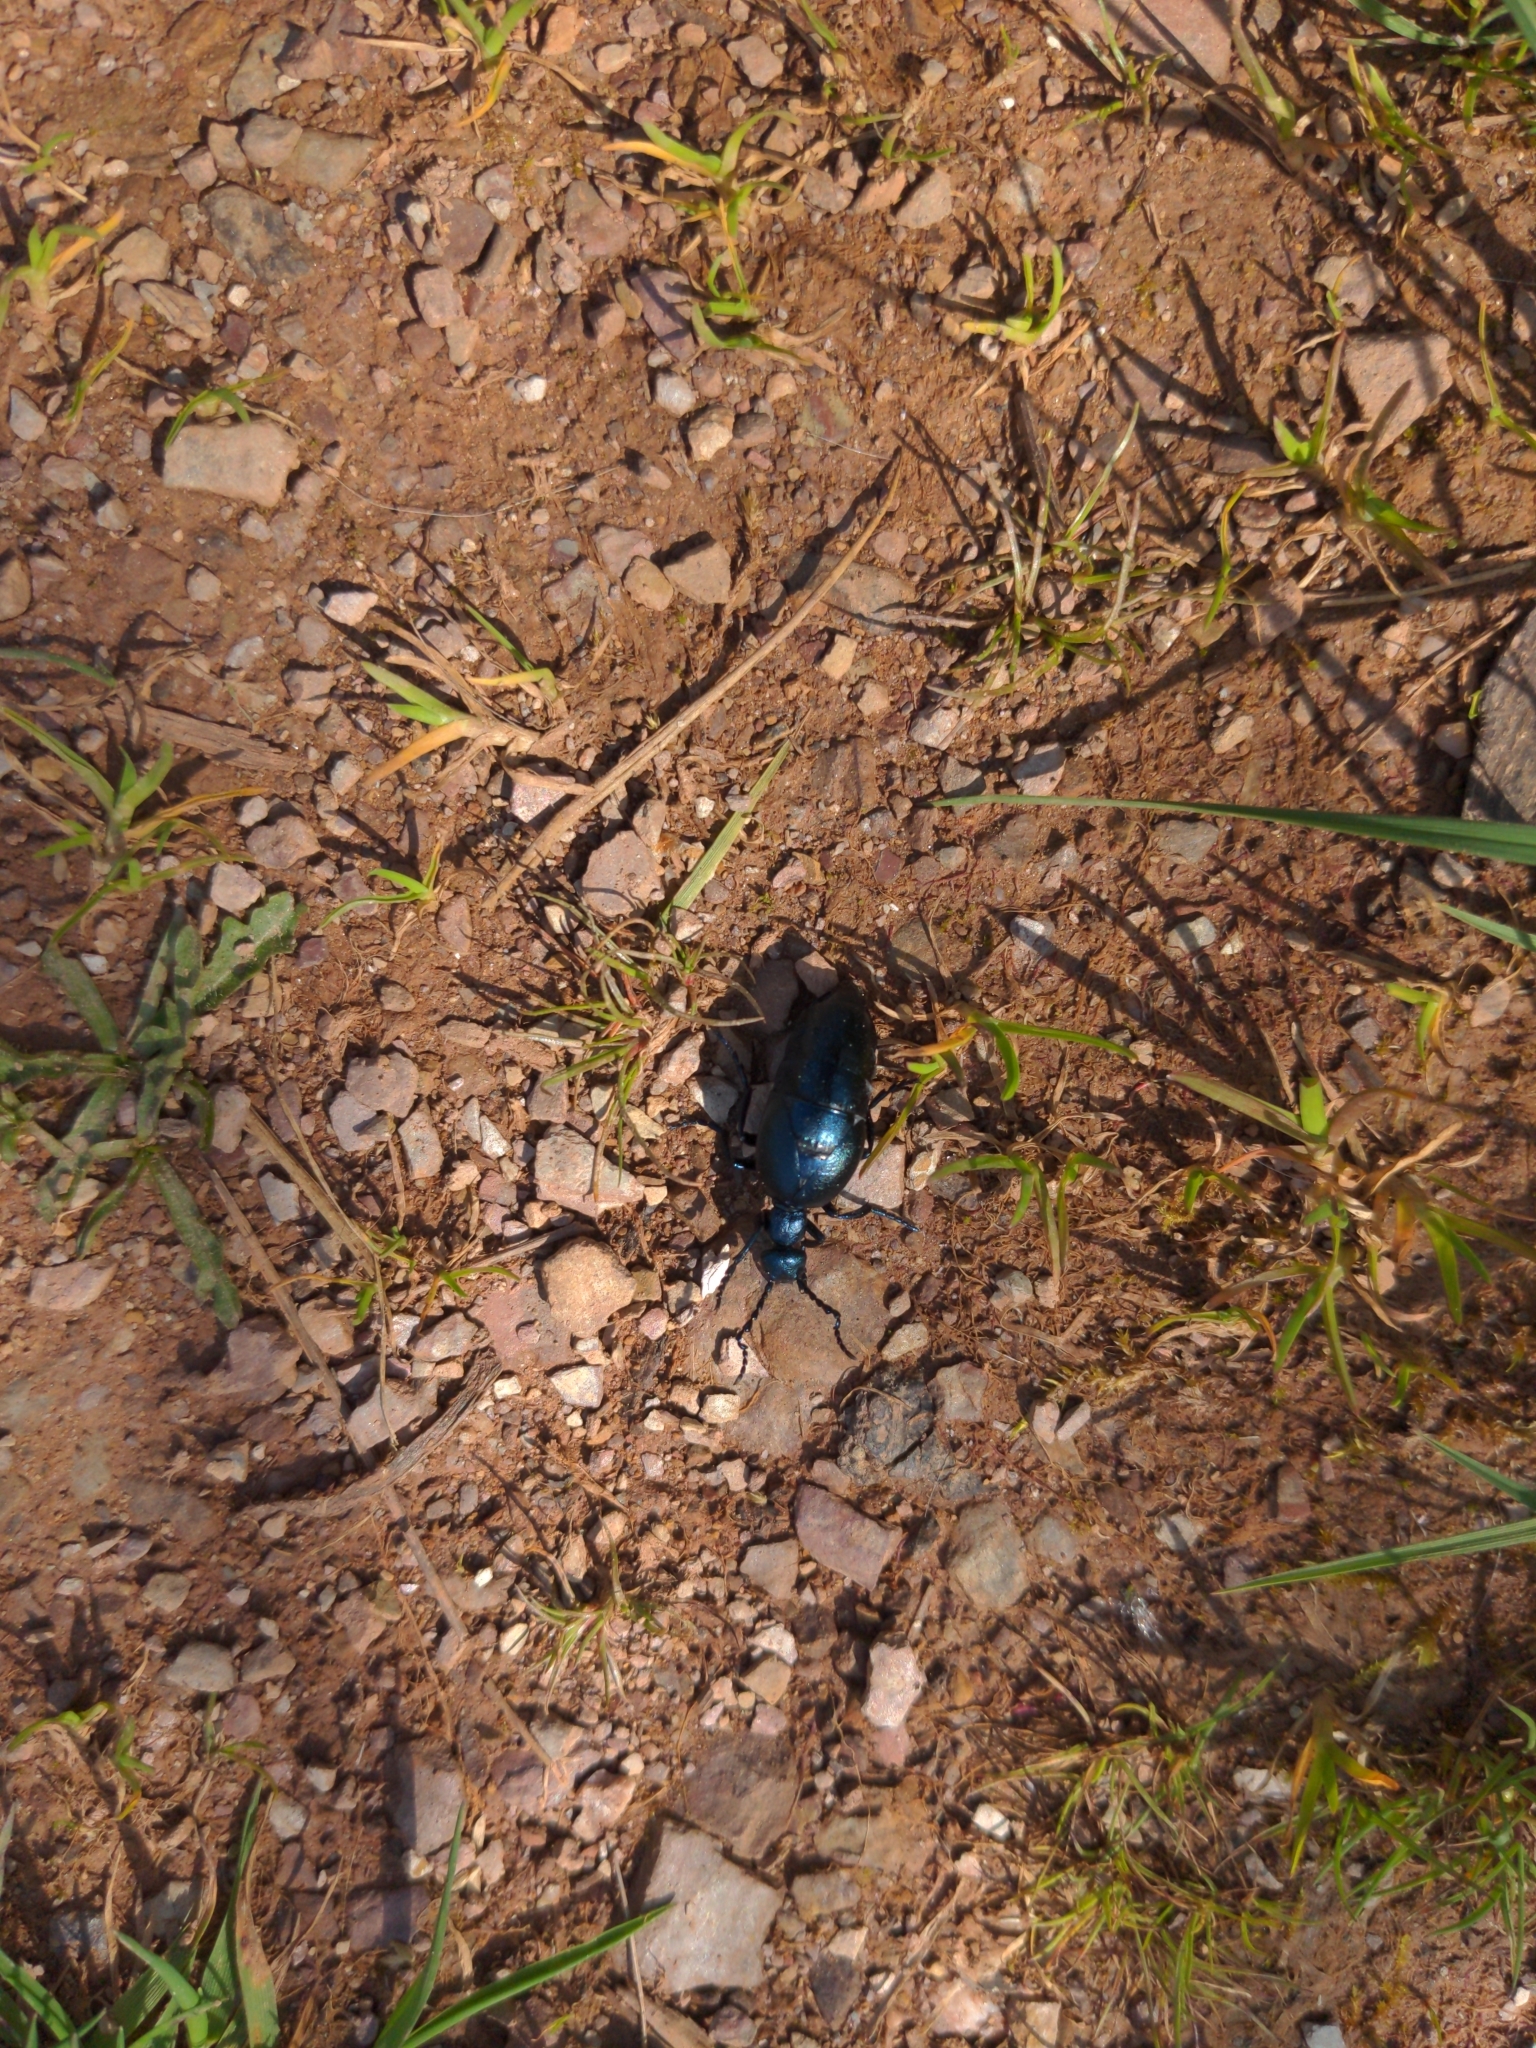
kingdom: Animalia
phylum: Arthropoda
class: Insecta
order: Coleoptera
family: Meloidae
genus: Meloe
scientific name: Meloe violaceus
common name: Violet oil-beetle
